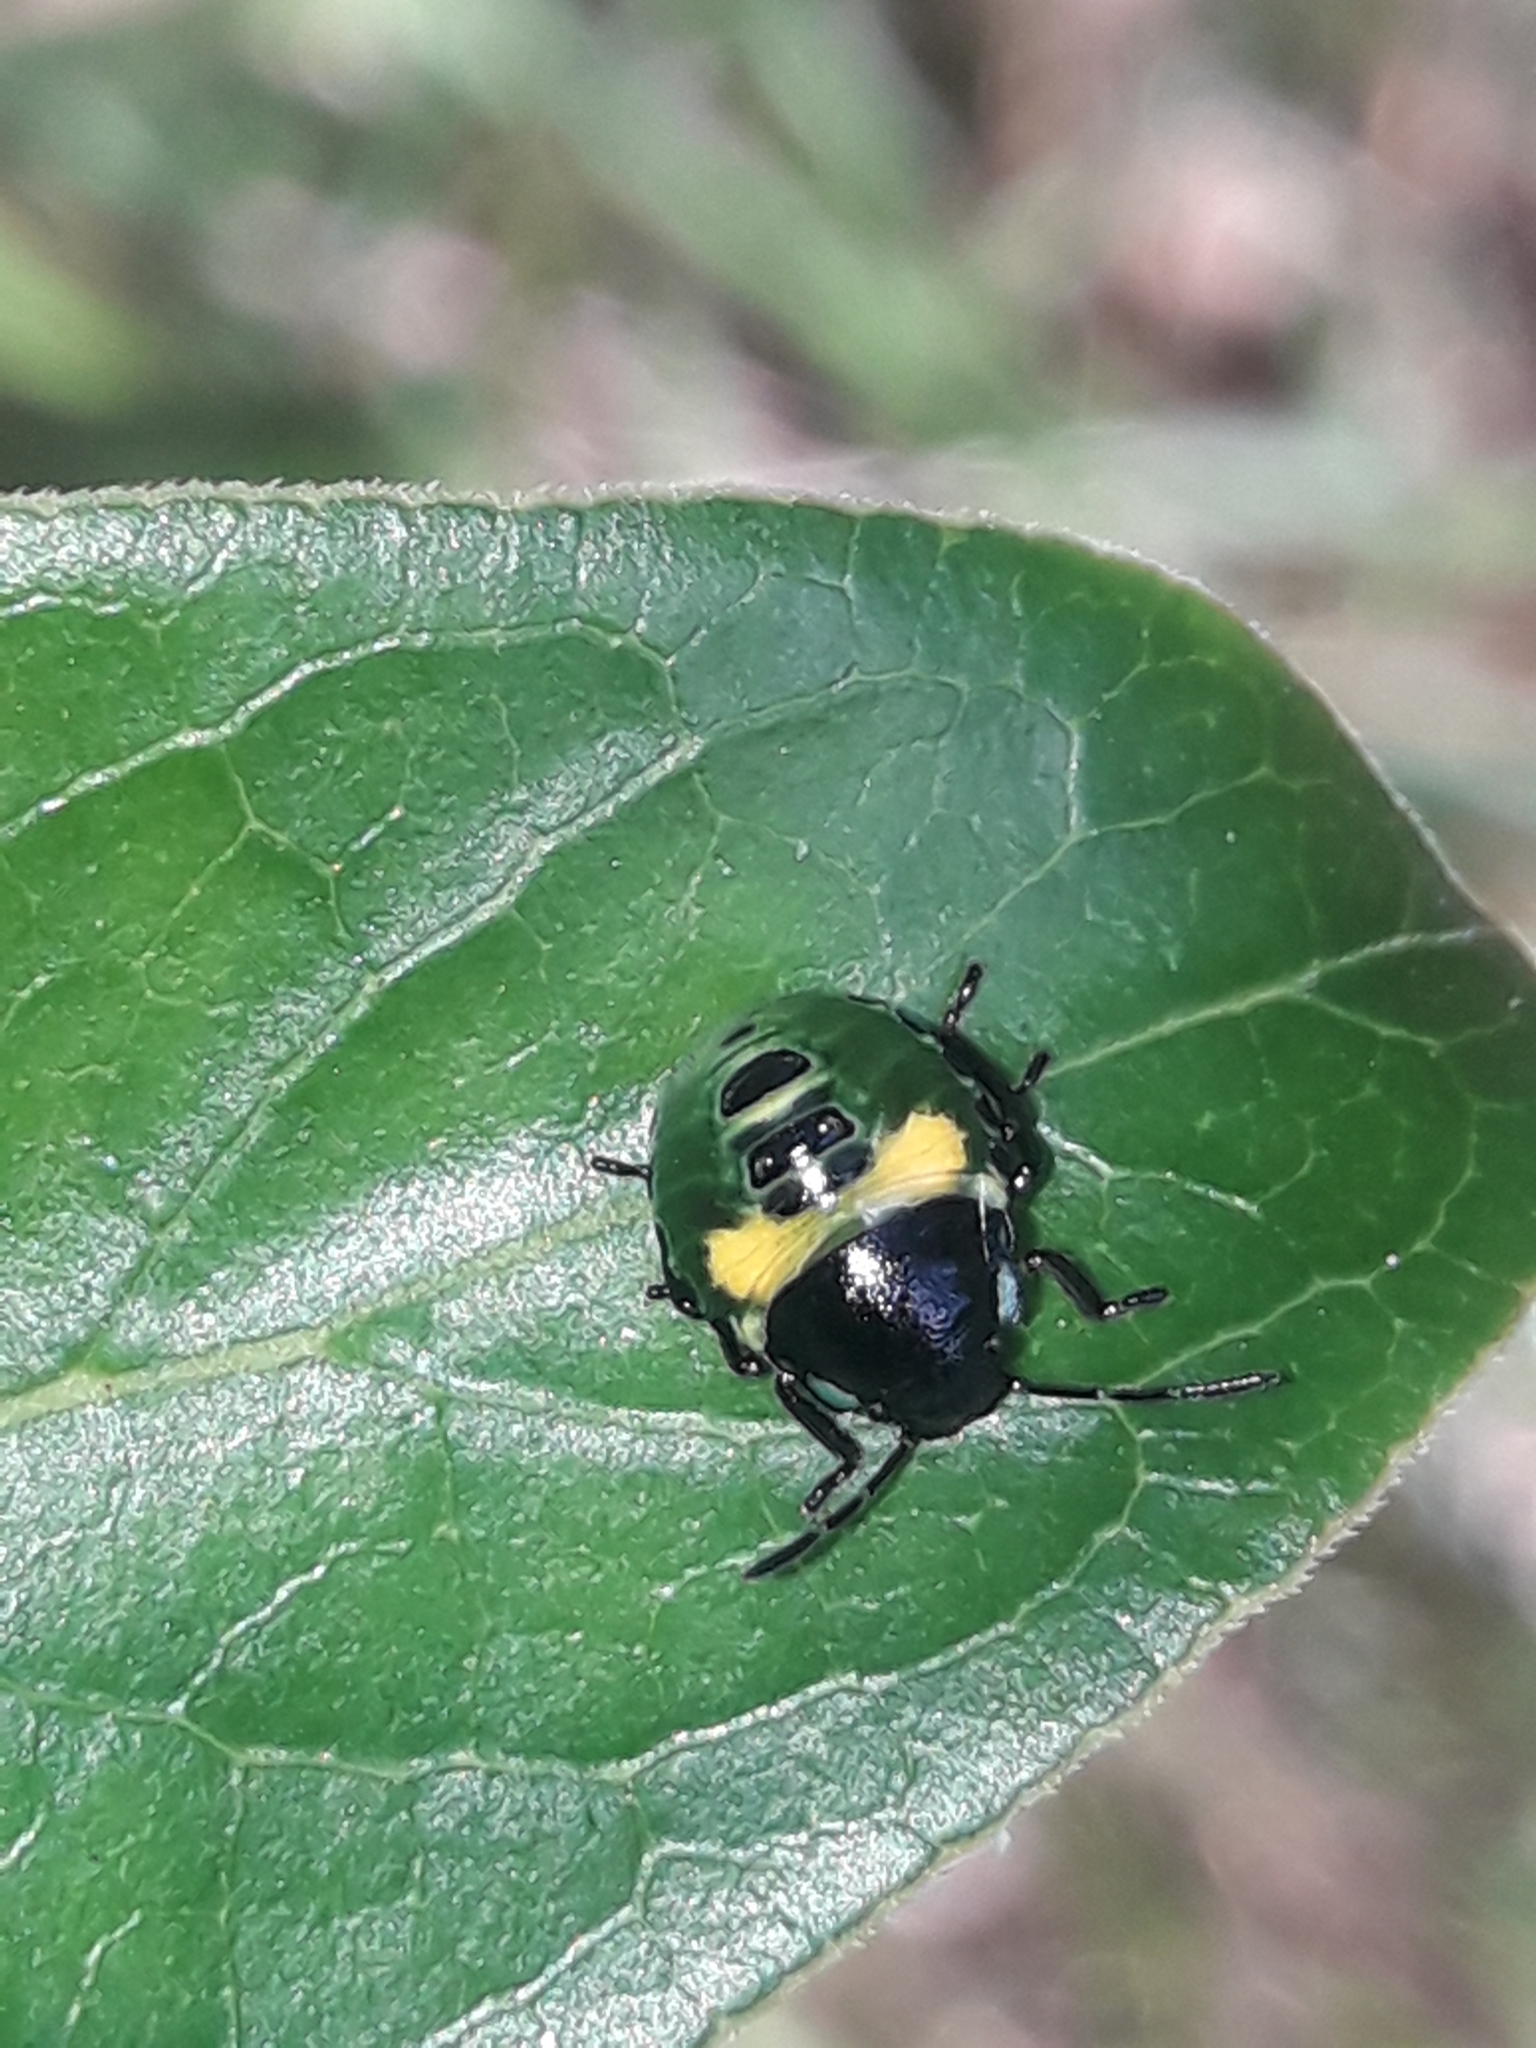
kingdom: Animalia
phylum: Arthropoda
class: Insecta
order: Hemiptera
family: Pentatomidae
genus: Glaucias
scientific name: Glaucias amyota
